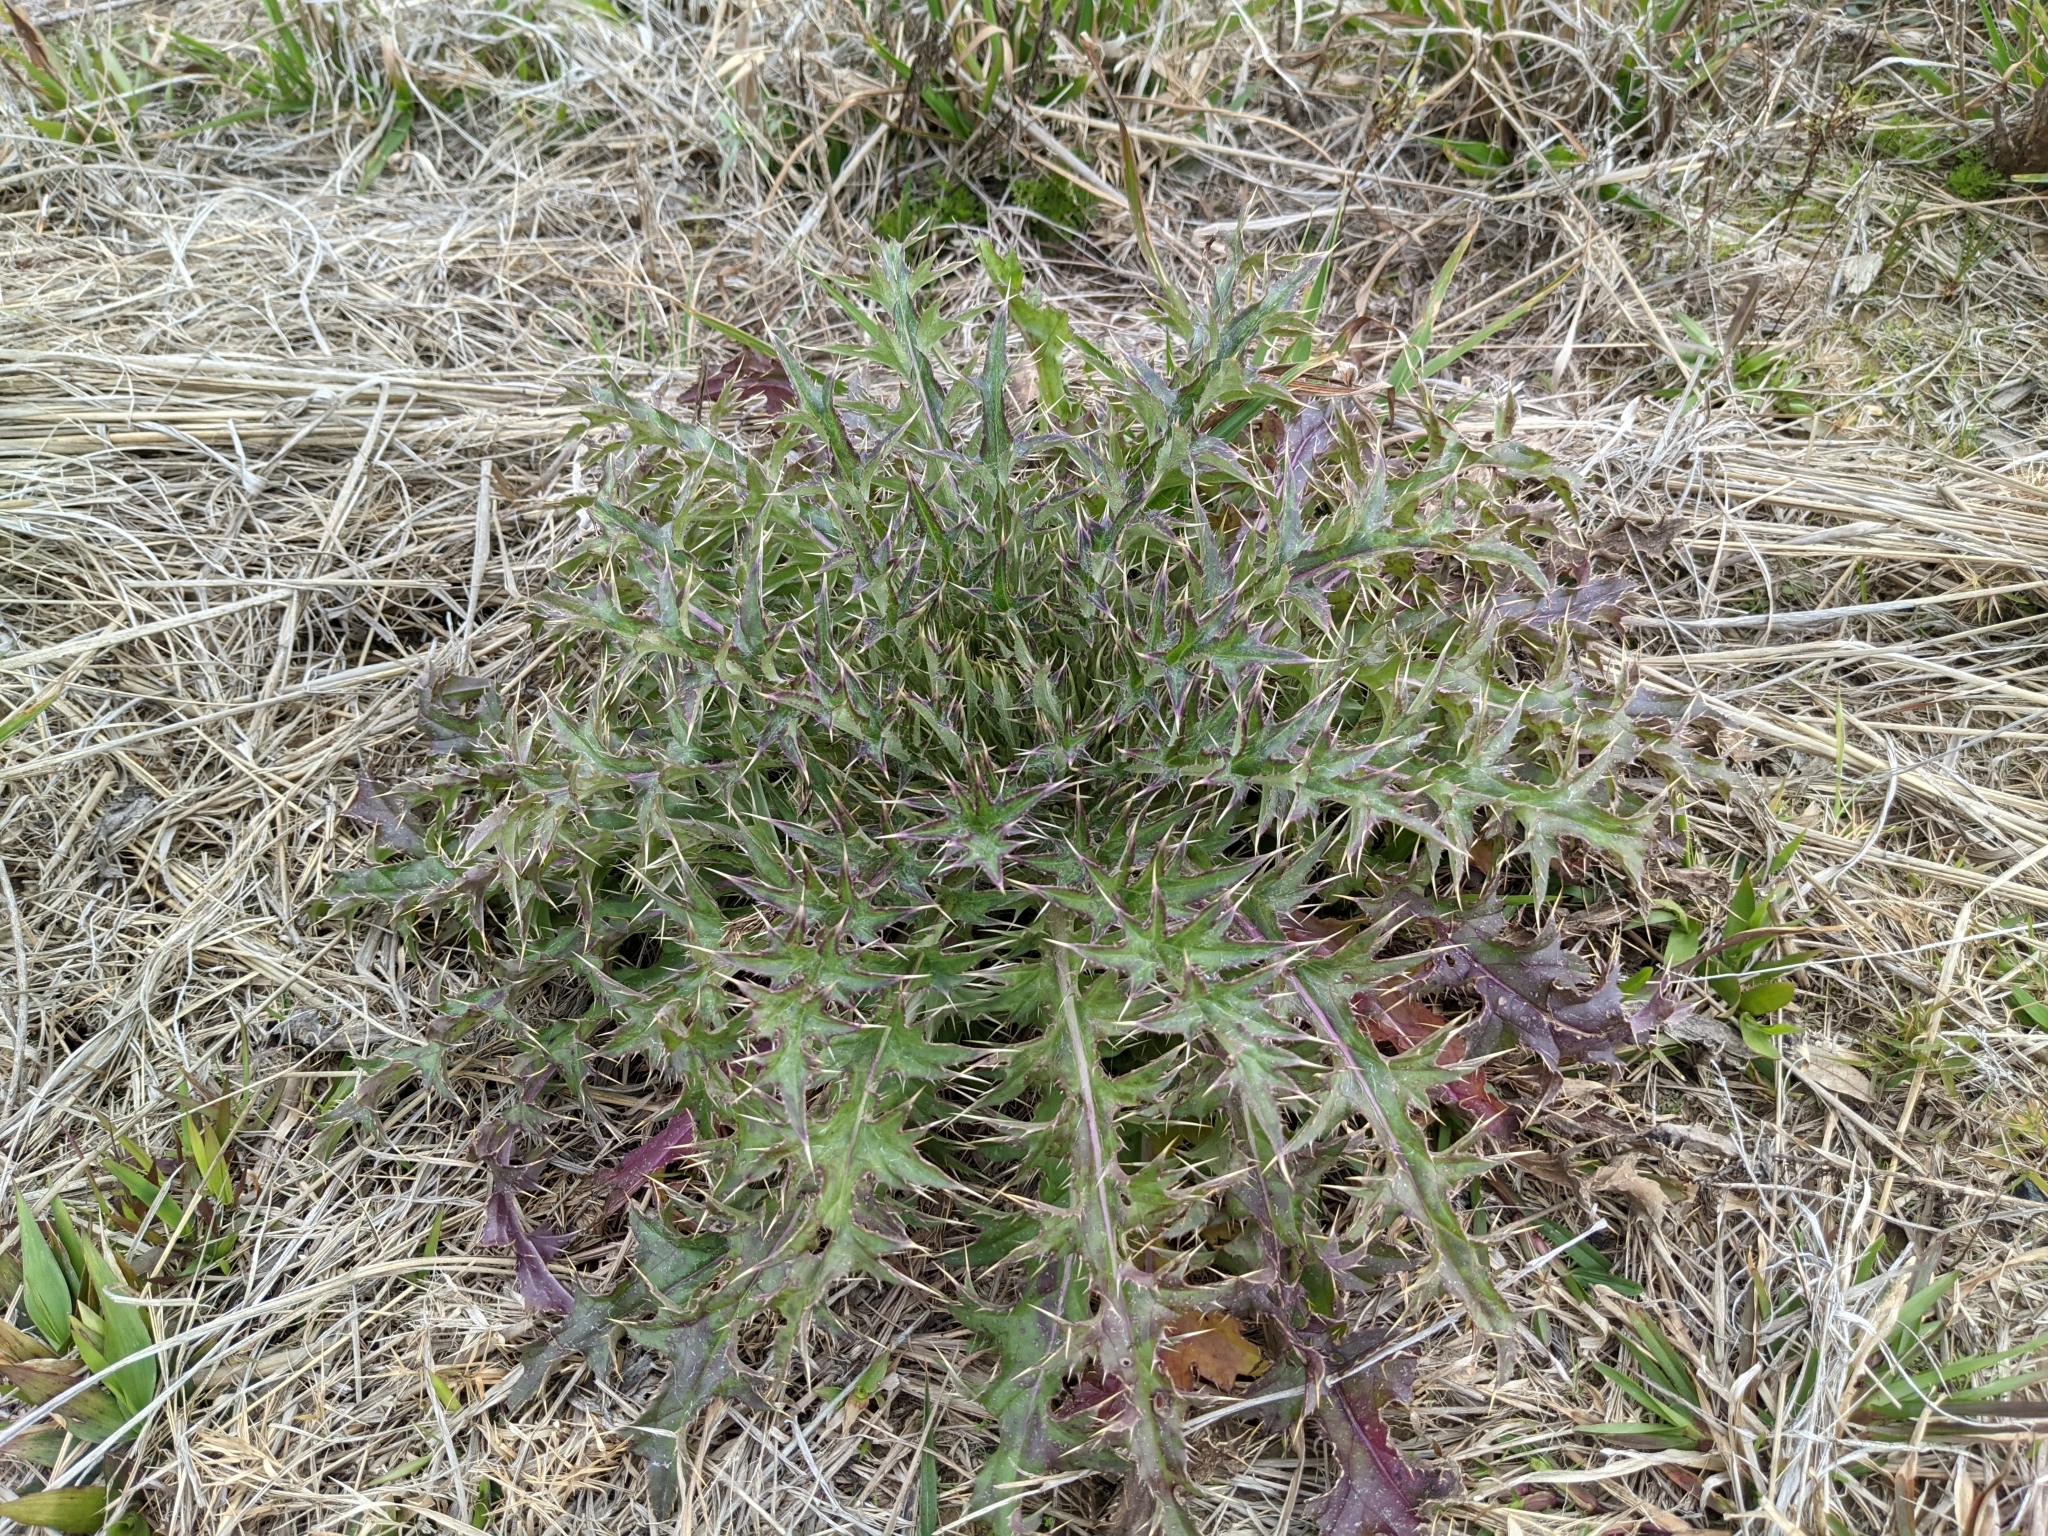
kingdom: Plantae
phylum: Tracheophyta
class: Magnoliopsida
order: Asterales
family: Asteraceae
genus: Cirsium
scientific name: Cirsium horridulum
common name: Bristly thistle
